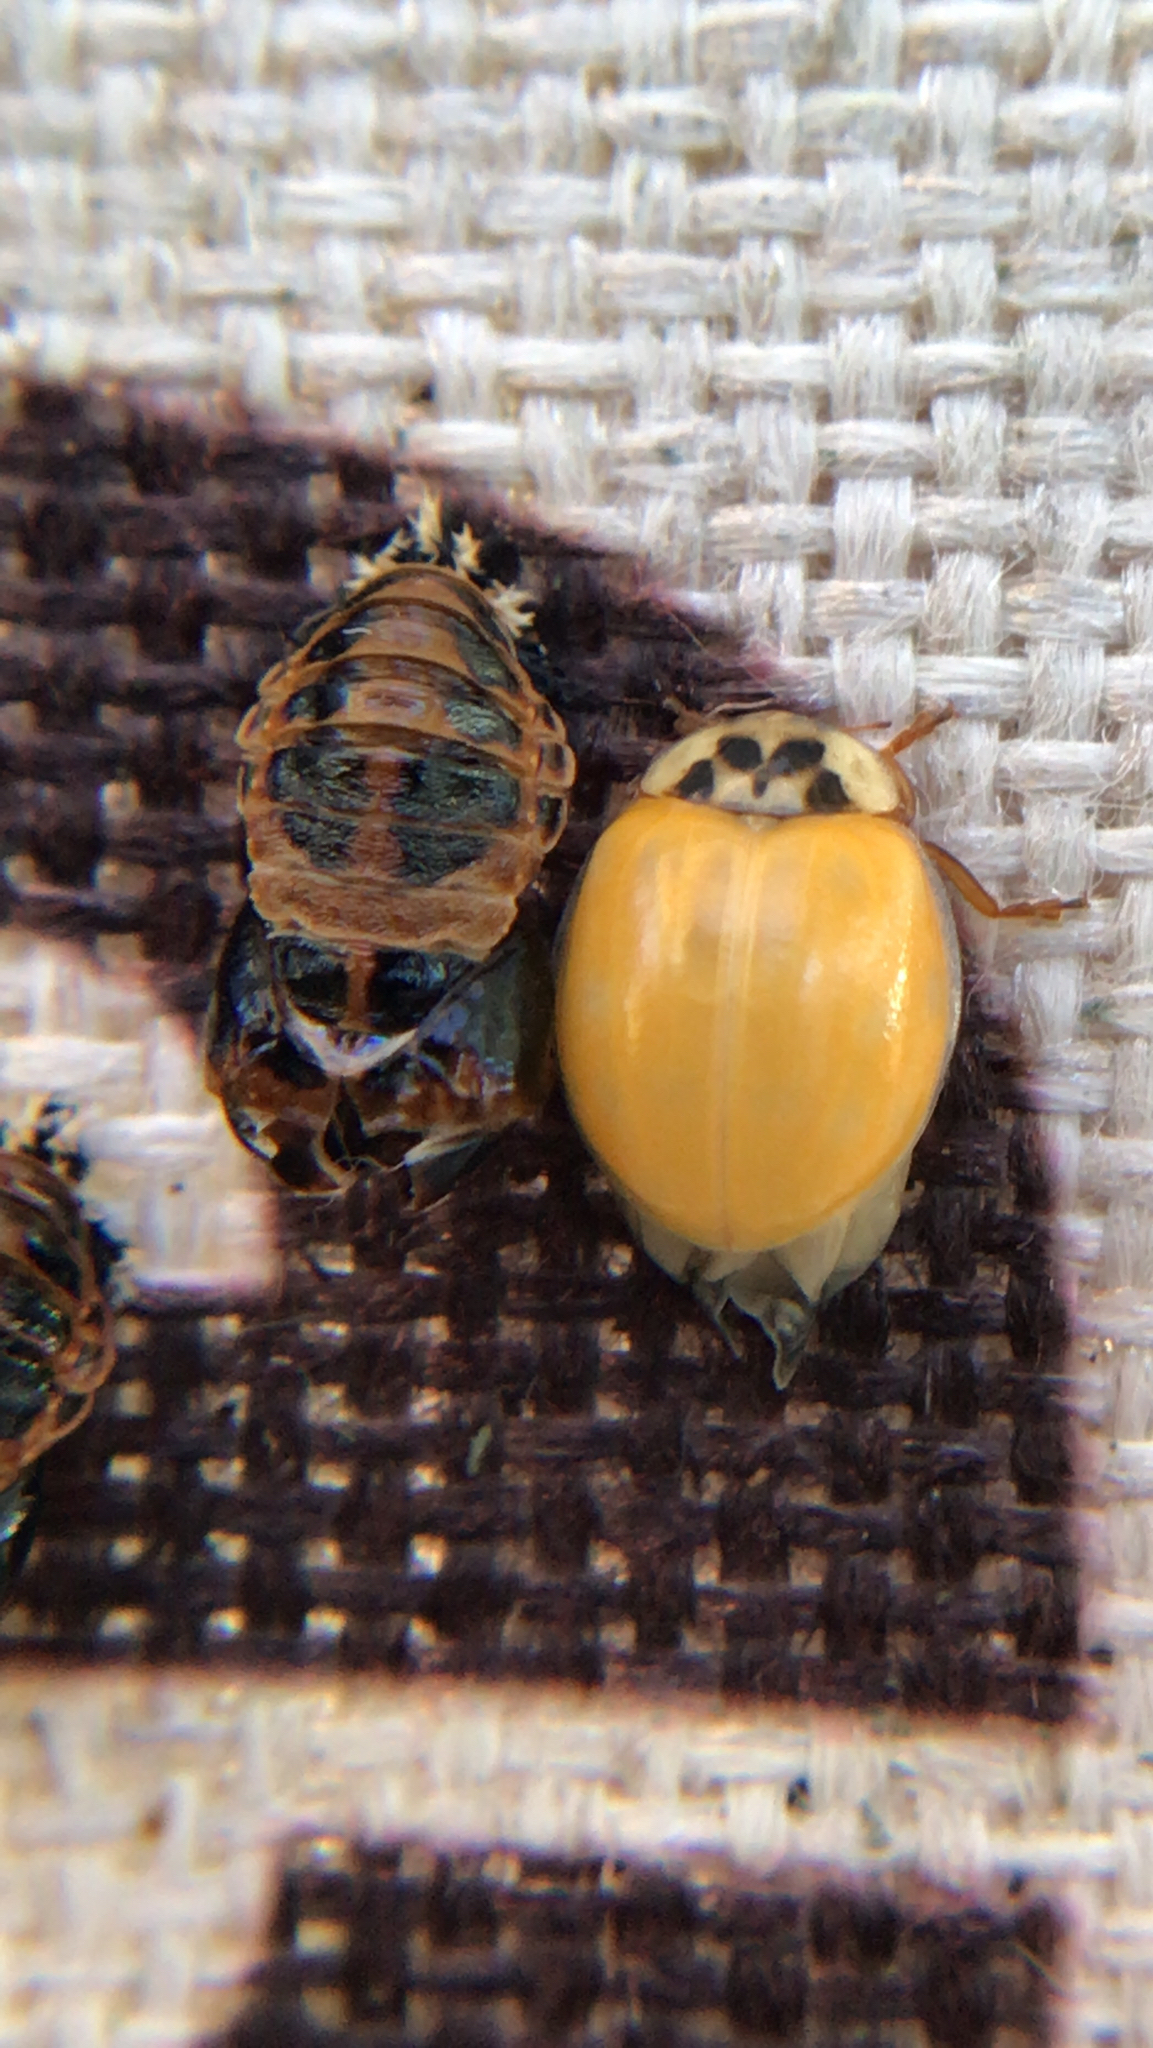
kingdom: Animalia
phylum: Arthropoda
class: Insecta
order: Coleoptera
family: Coccinellidae
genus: Harmonia
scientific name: Harmonia axyridis
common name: Harlequin ladybird
